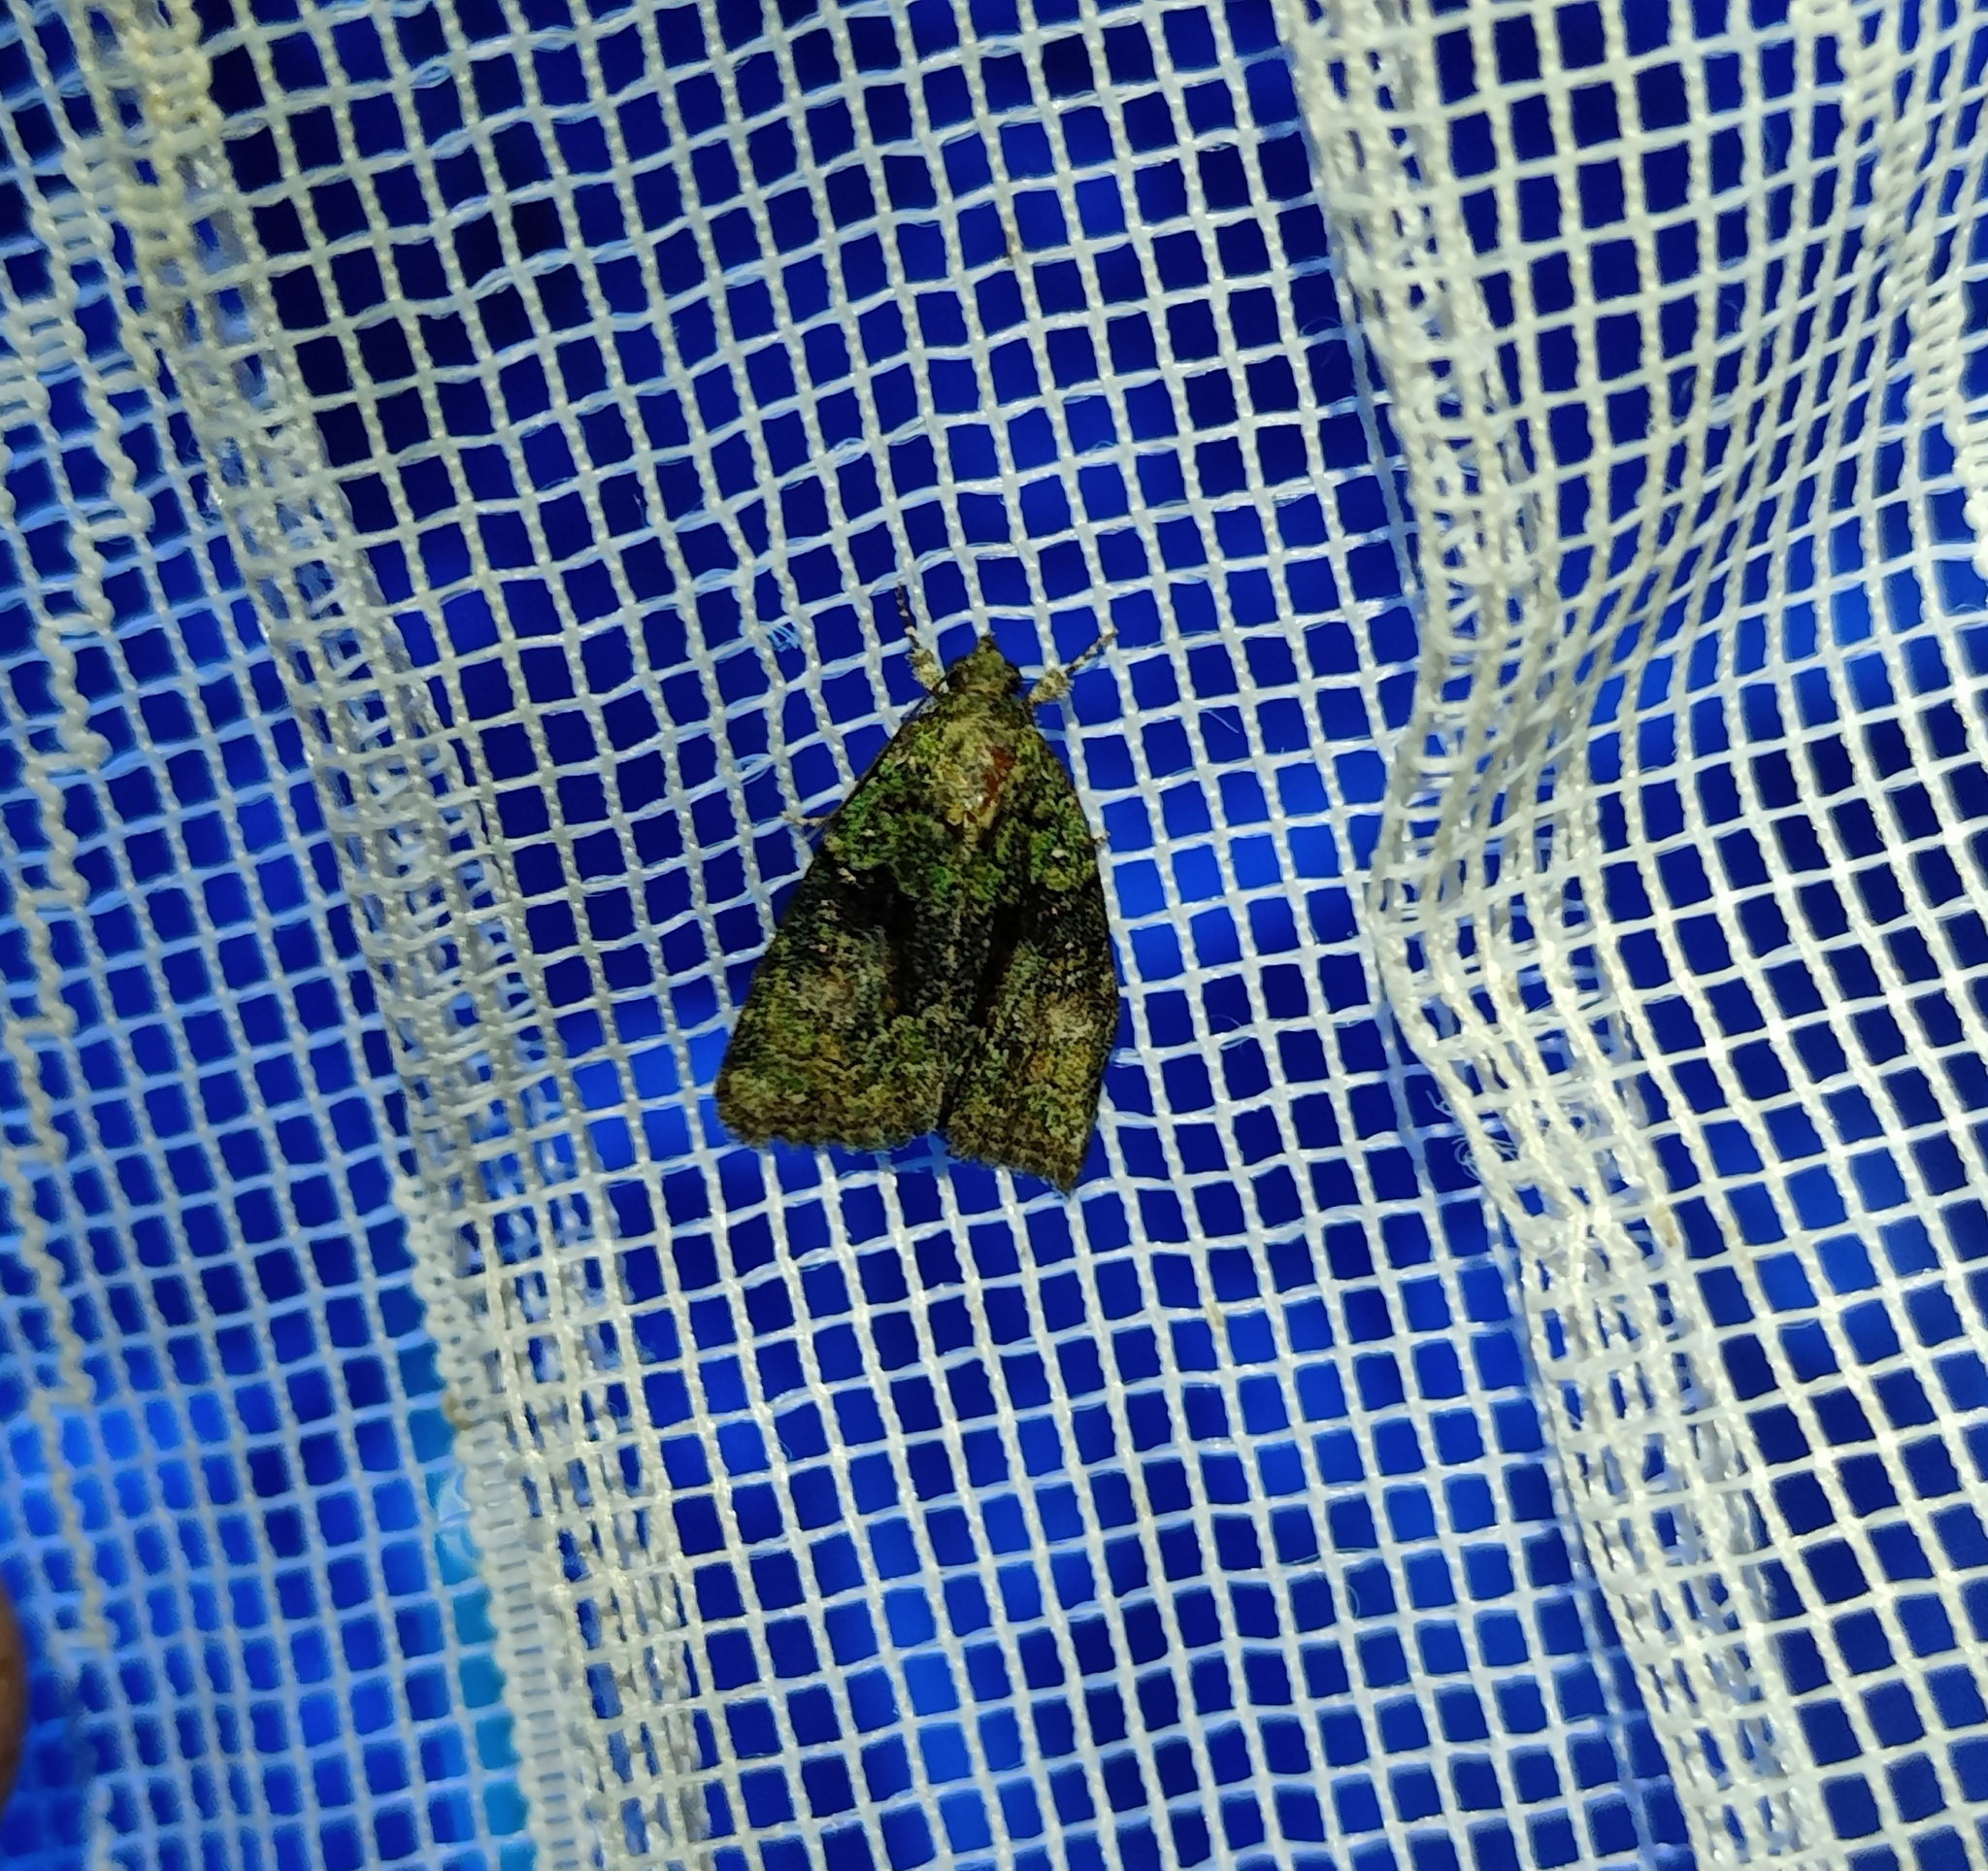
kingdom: Animalia
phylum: Arthropoda
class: Insecta
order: Lepidoptera
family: Noctuidae
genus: Cryphia
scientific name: Cryphia algae
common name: Tree-lichen beauty
